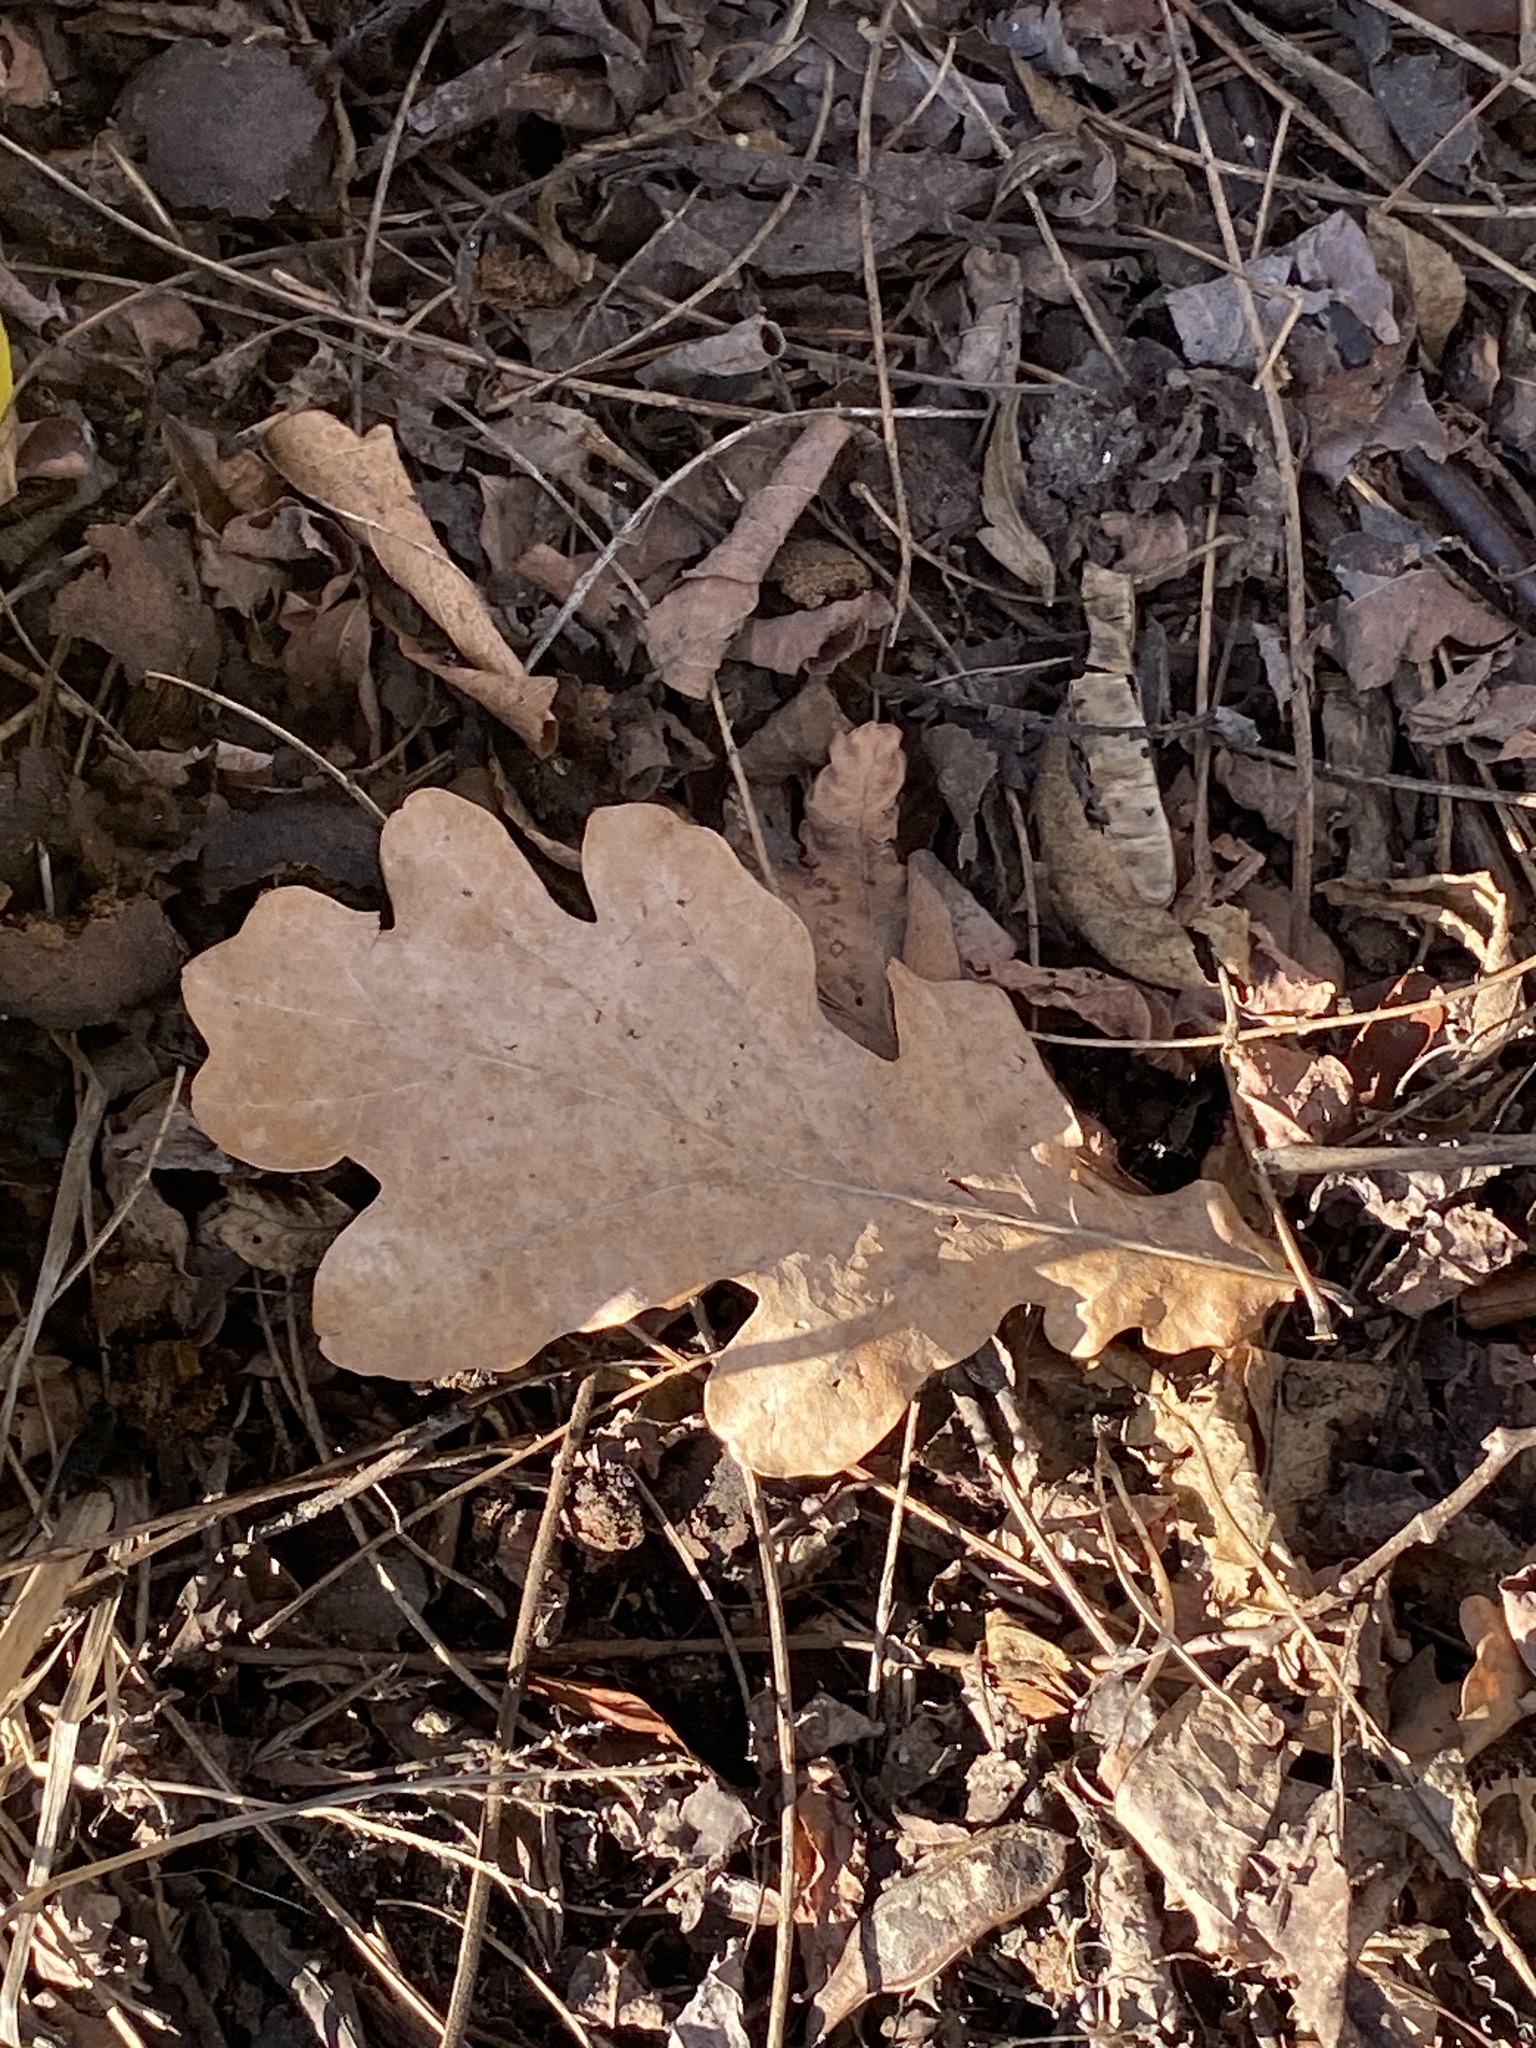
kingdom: Plantae
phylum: Tracheophyta
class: Magnoliopsida
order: Fagales
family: Fagaceae
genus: Quercus
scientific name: Quercus alba
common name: White oak
